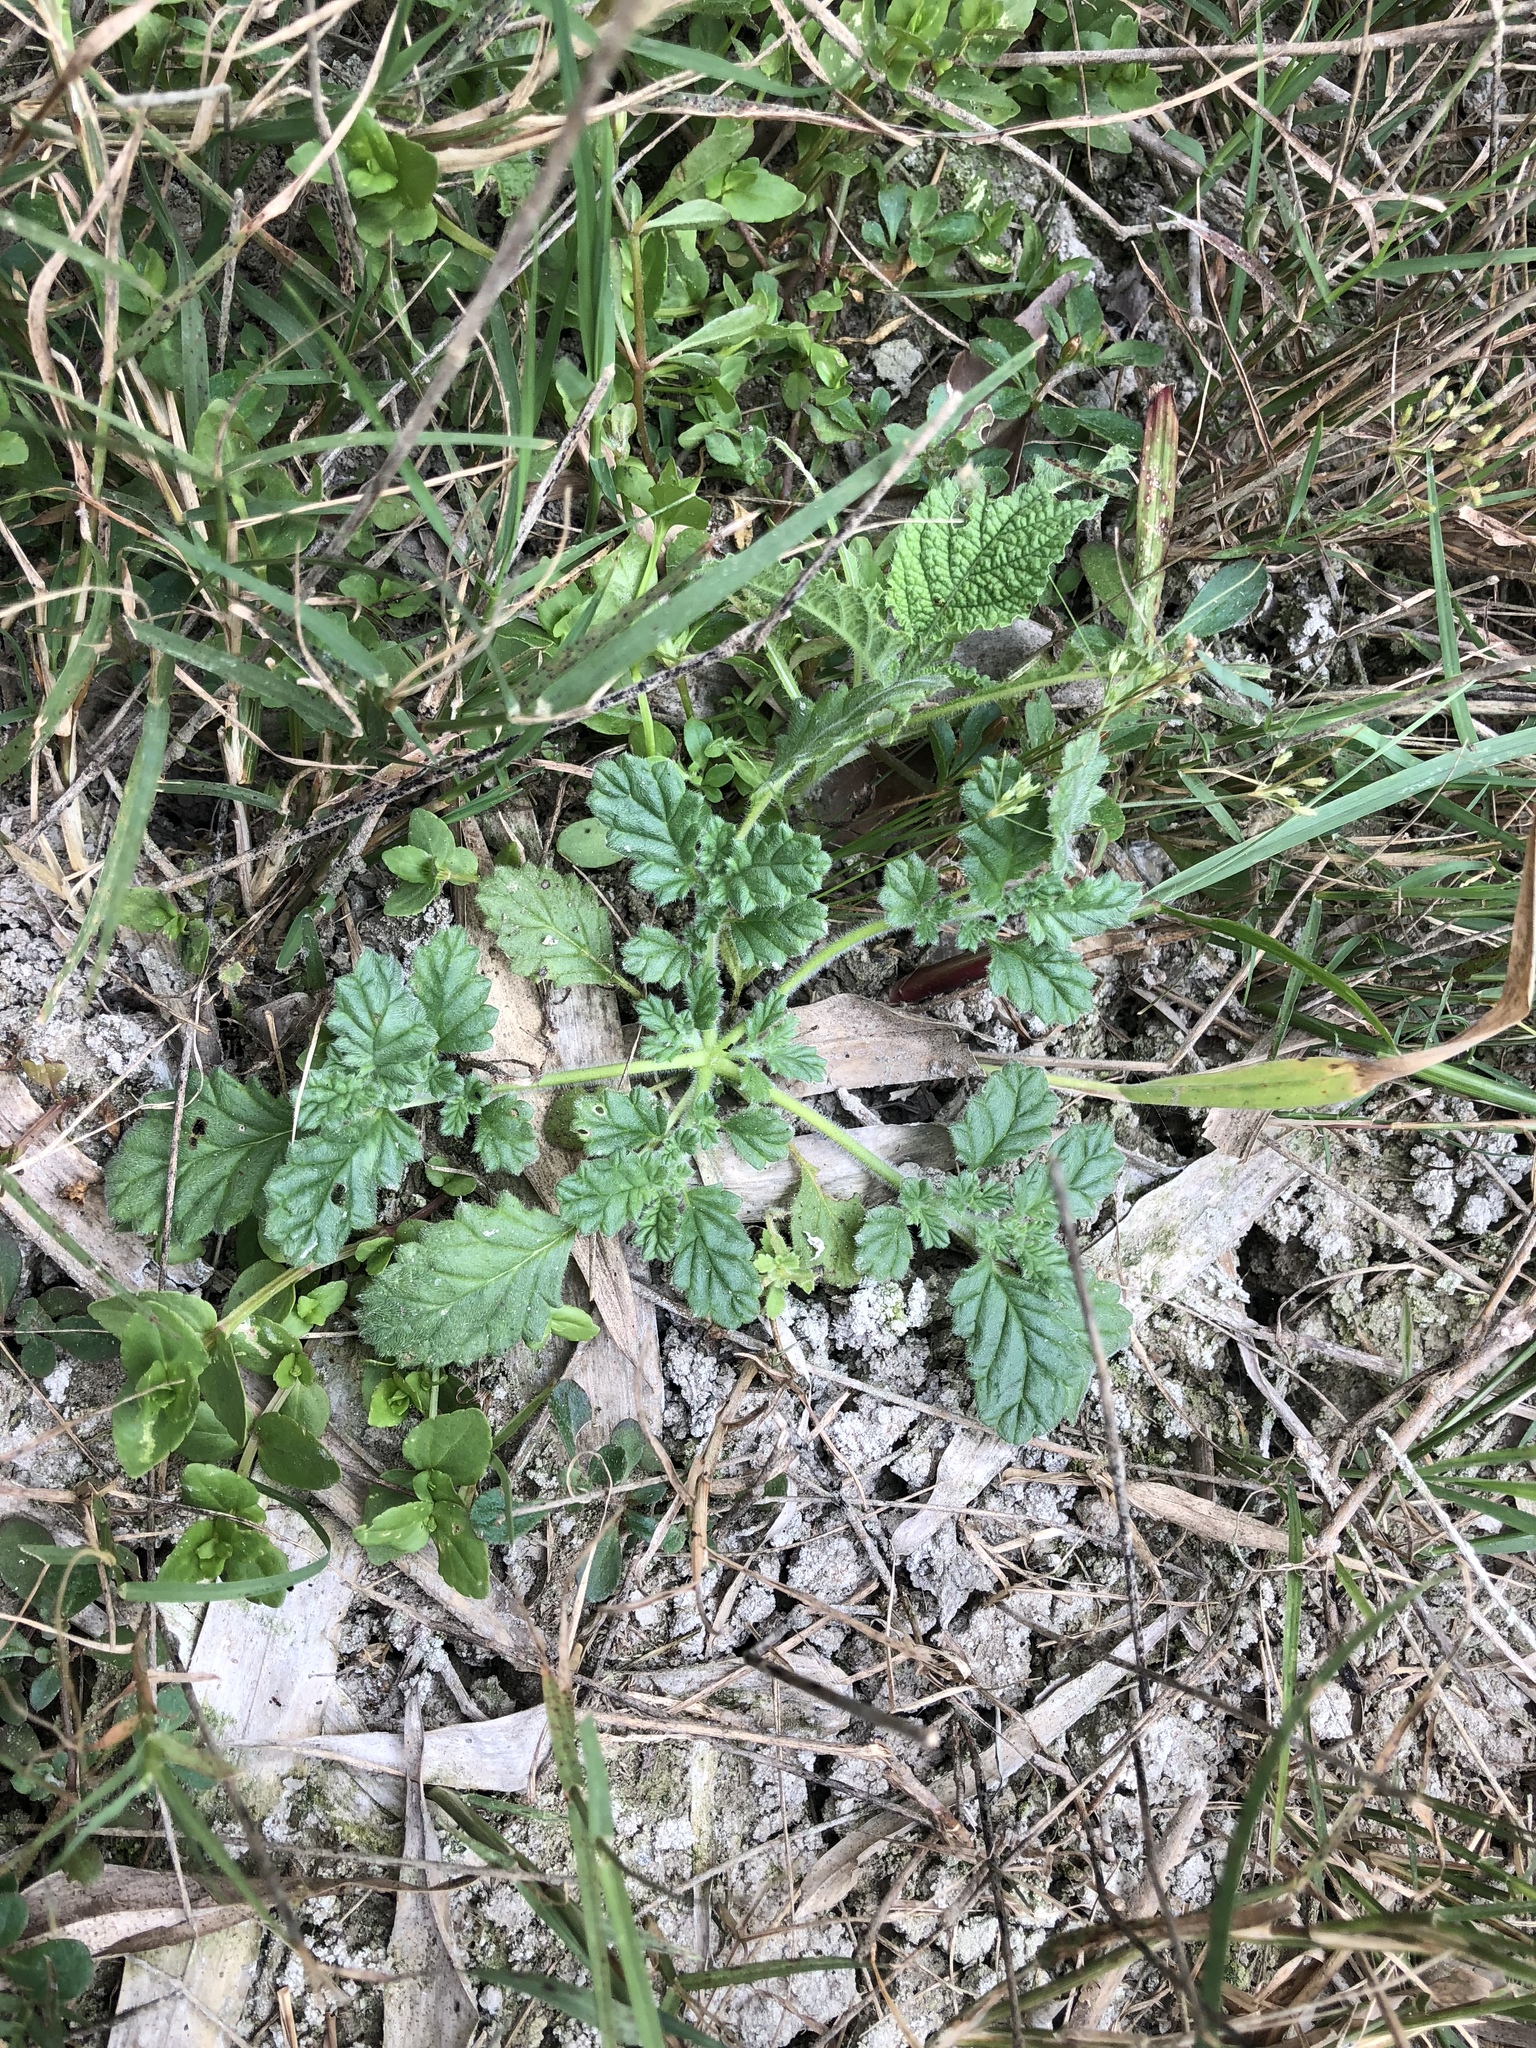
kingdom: Plantae
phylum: Tracheophyta
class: Magnoliopsida
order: Boraginales
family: Coldeniaceae
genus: Coldenia
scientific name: Coldenia procumbens
